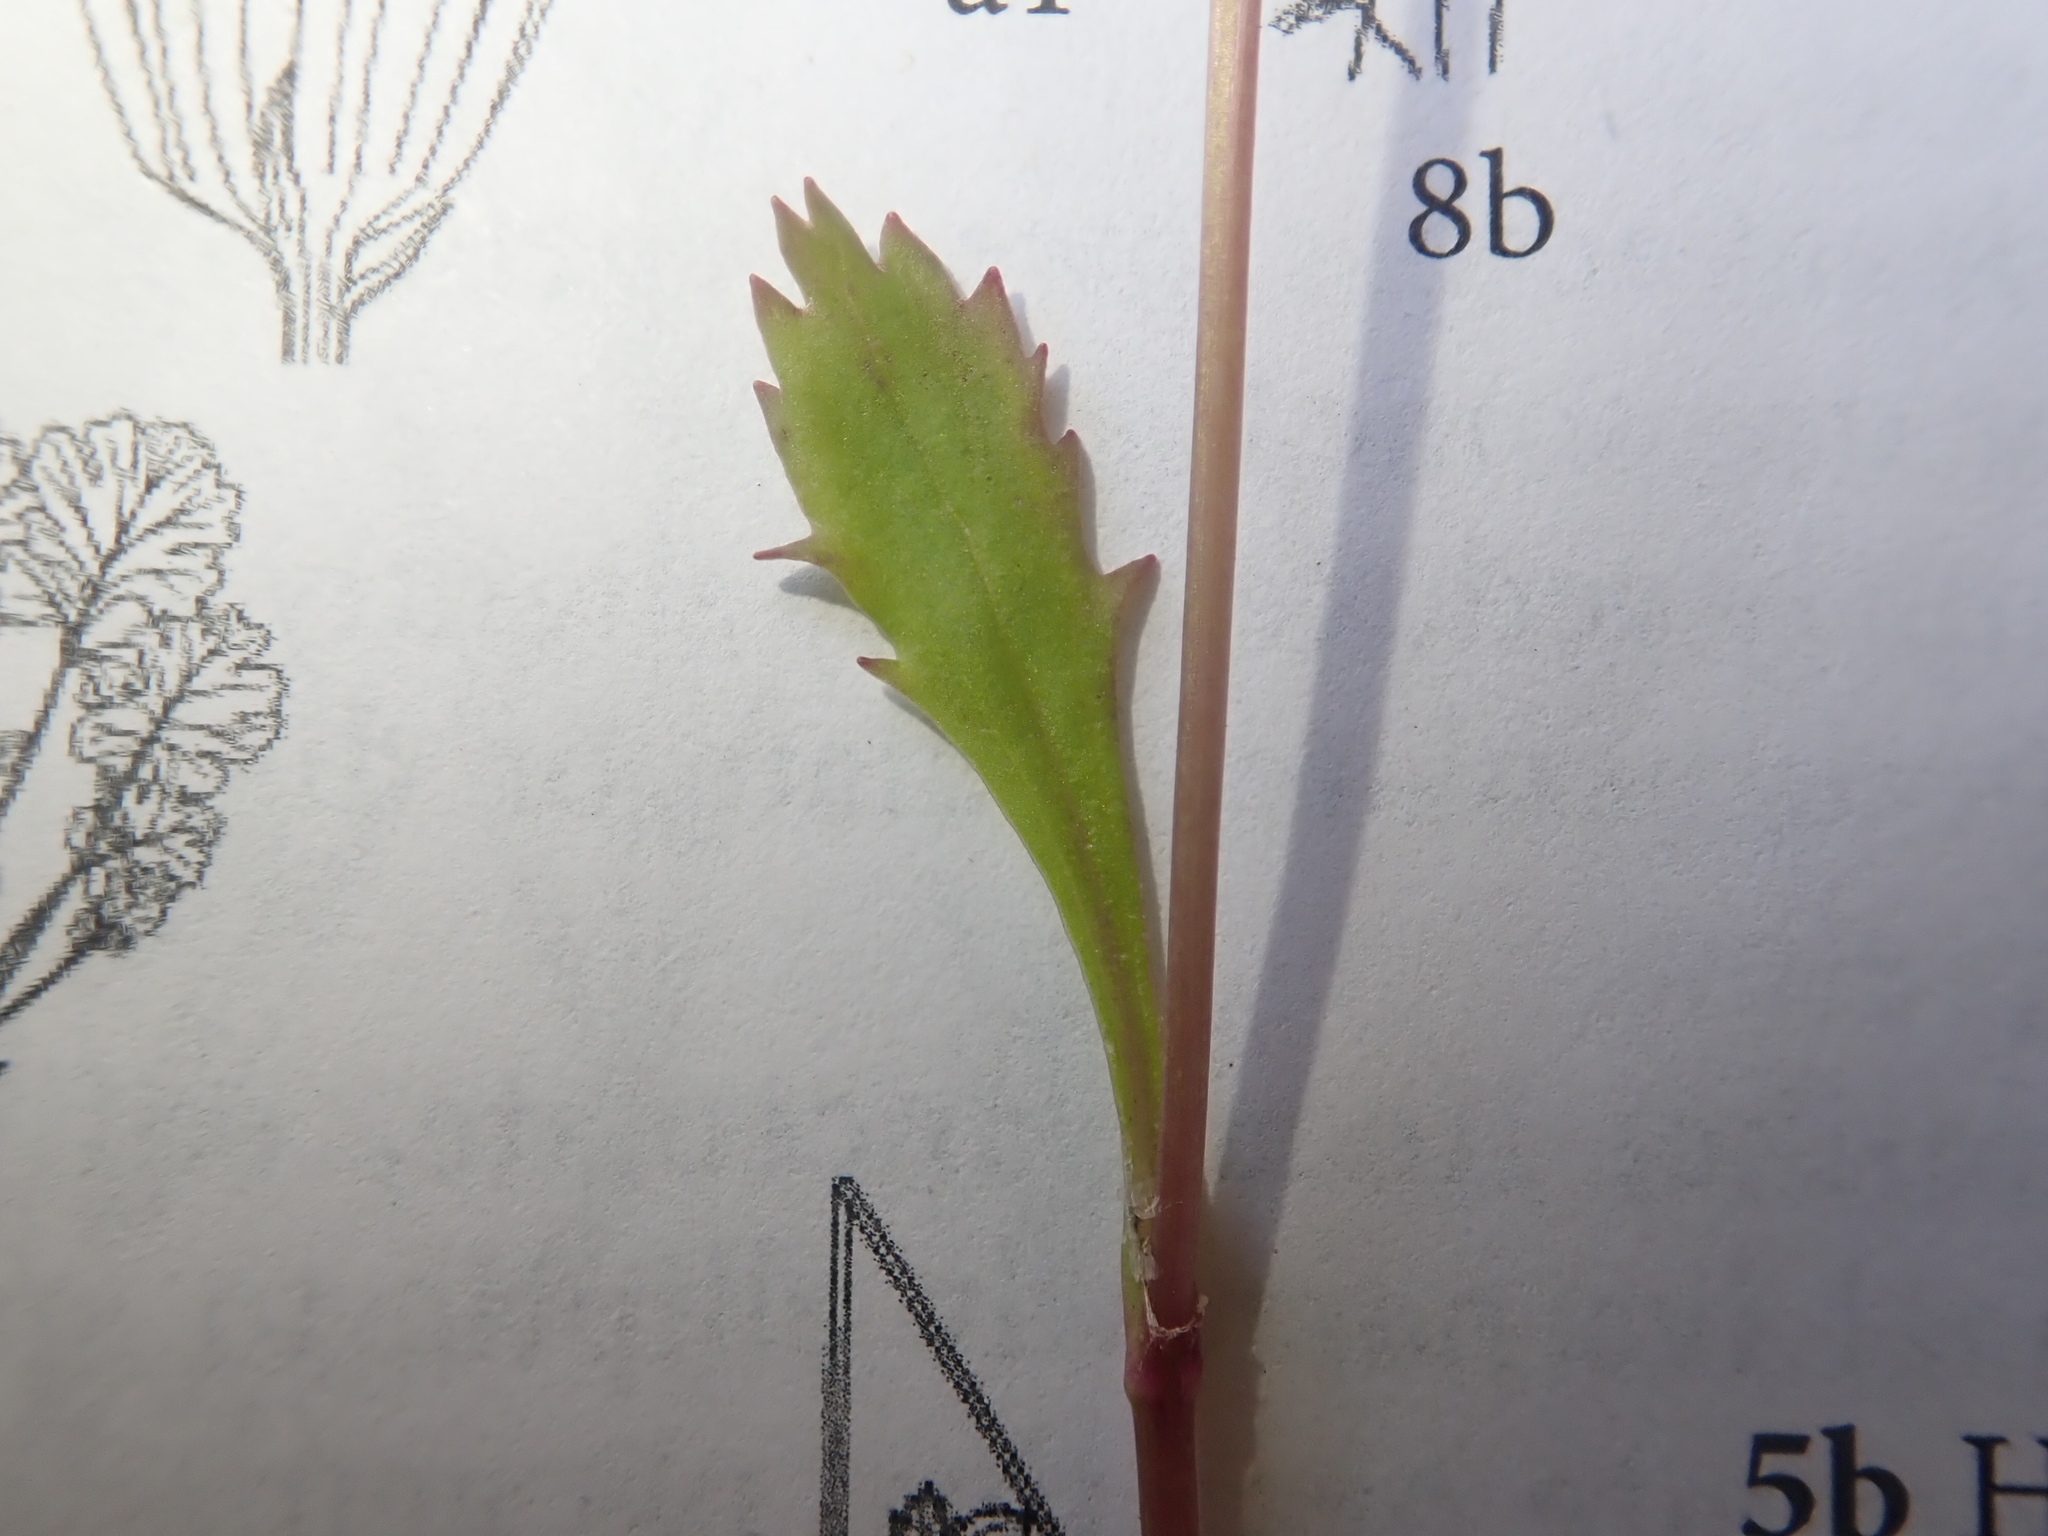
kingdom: Plantae
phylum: Tracheophyta
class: Magnoliopsida
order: Asterales
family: Asteraceae
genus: Packera
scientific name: Packera subnuda
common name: Buek's groundsel
